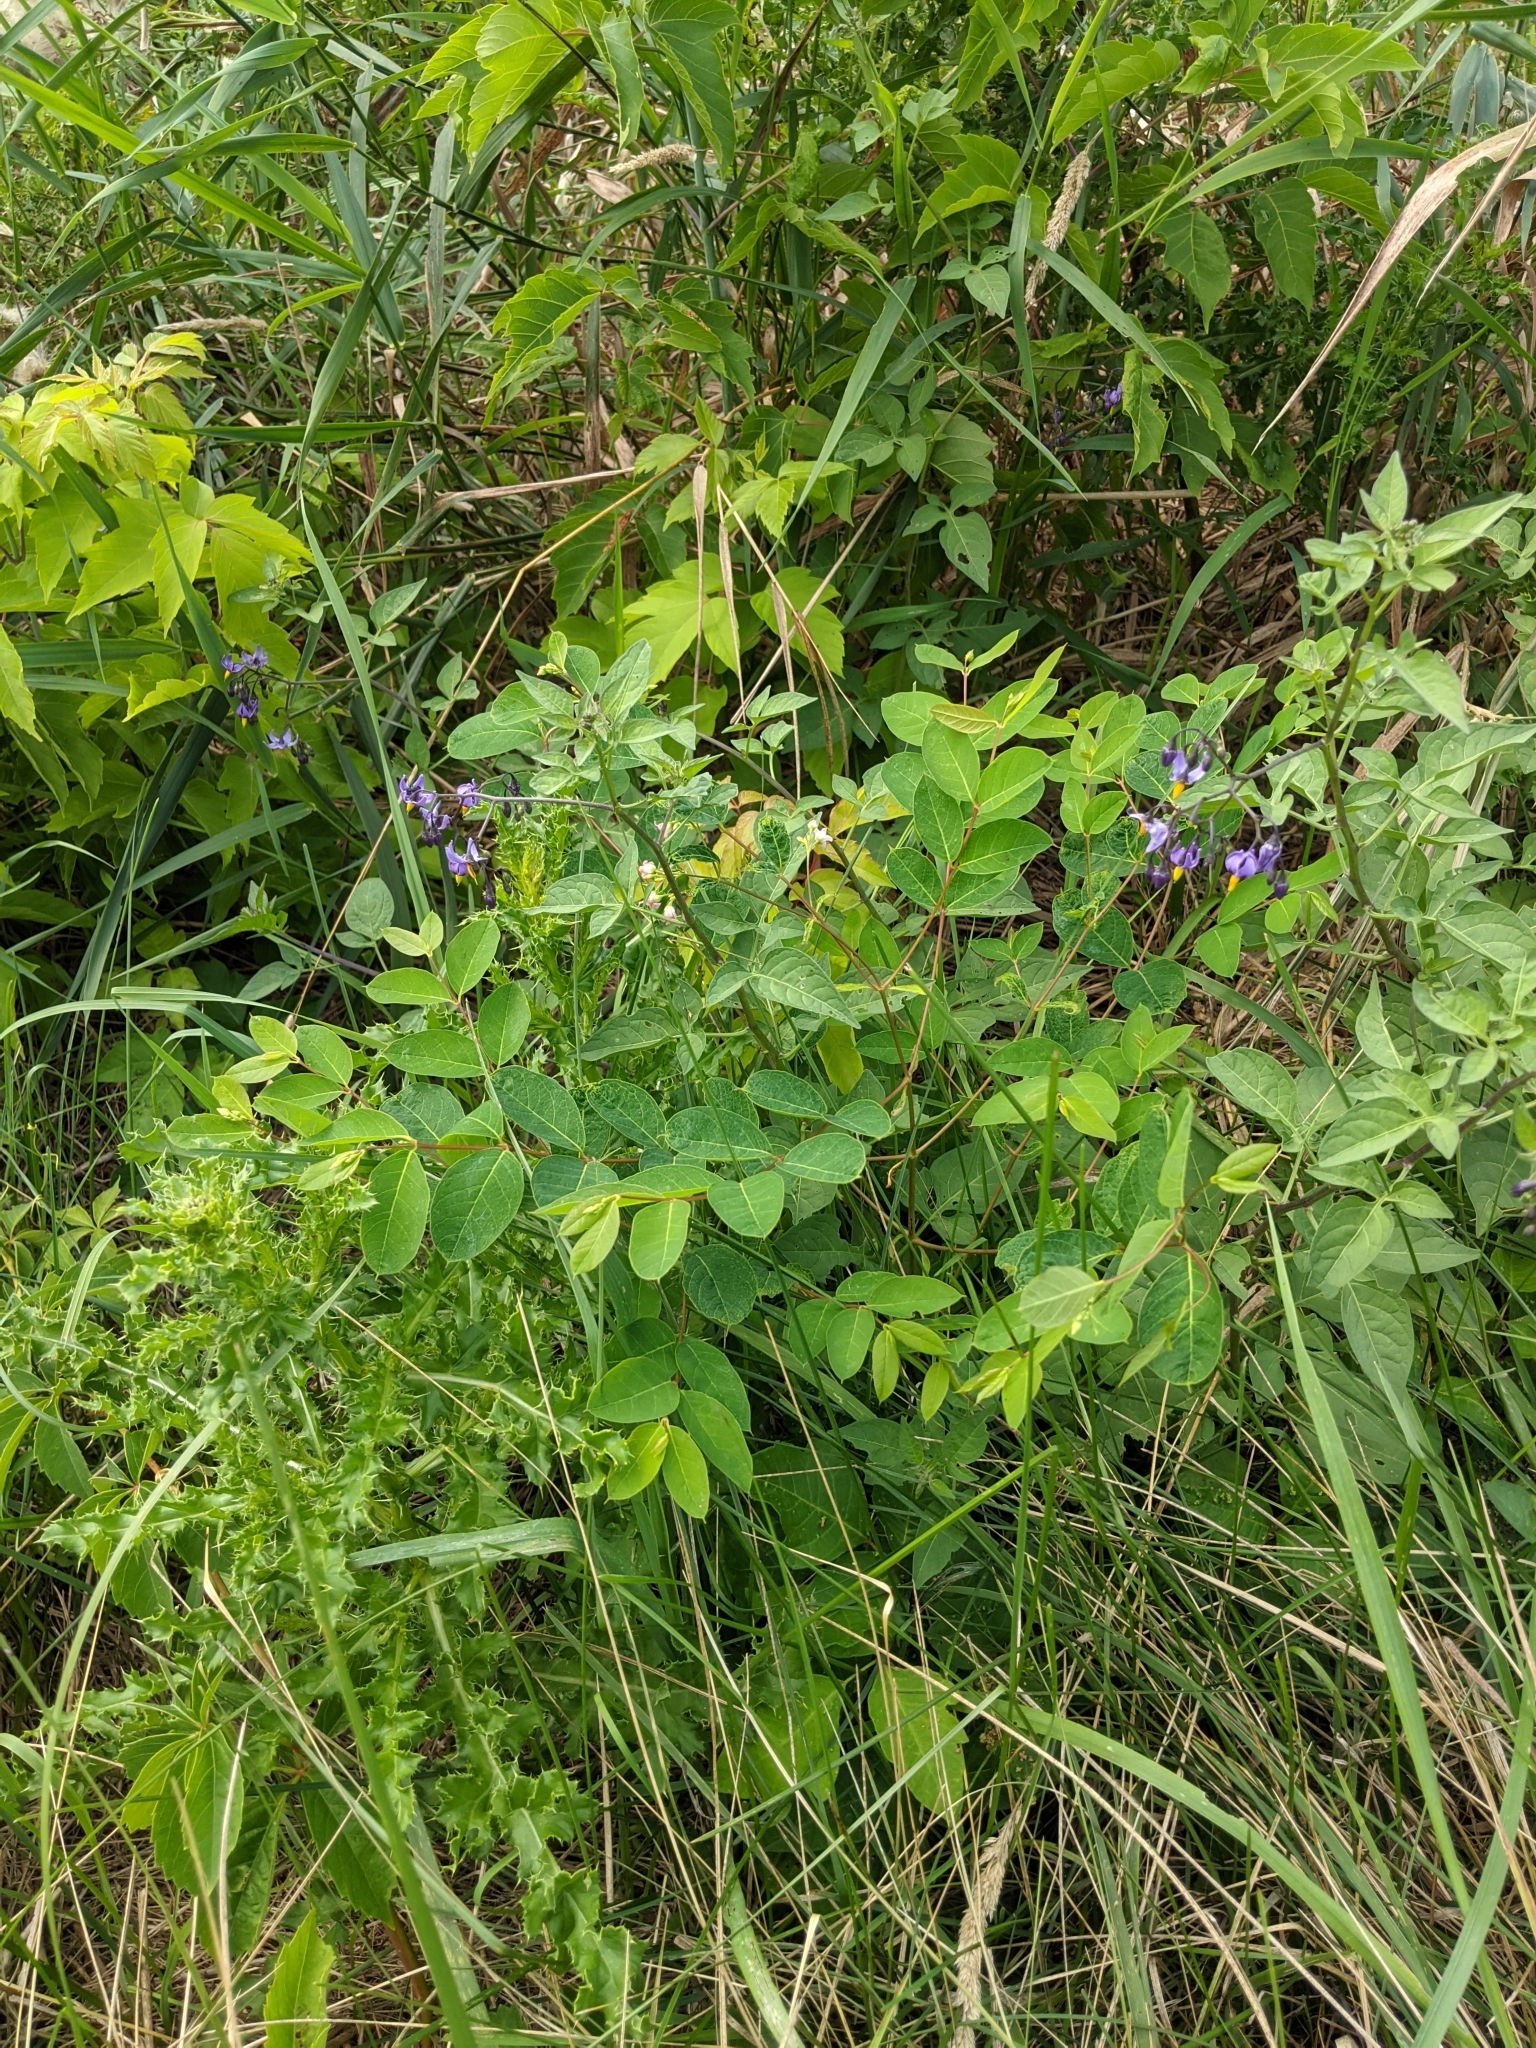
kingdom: Plantae
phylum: Tracheophyta
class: Magnoliopsida
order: Solanales
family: Solanaceae
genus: Solanum
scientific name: Solanum dulcamara
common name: Climbing nightshade
